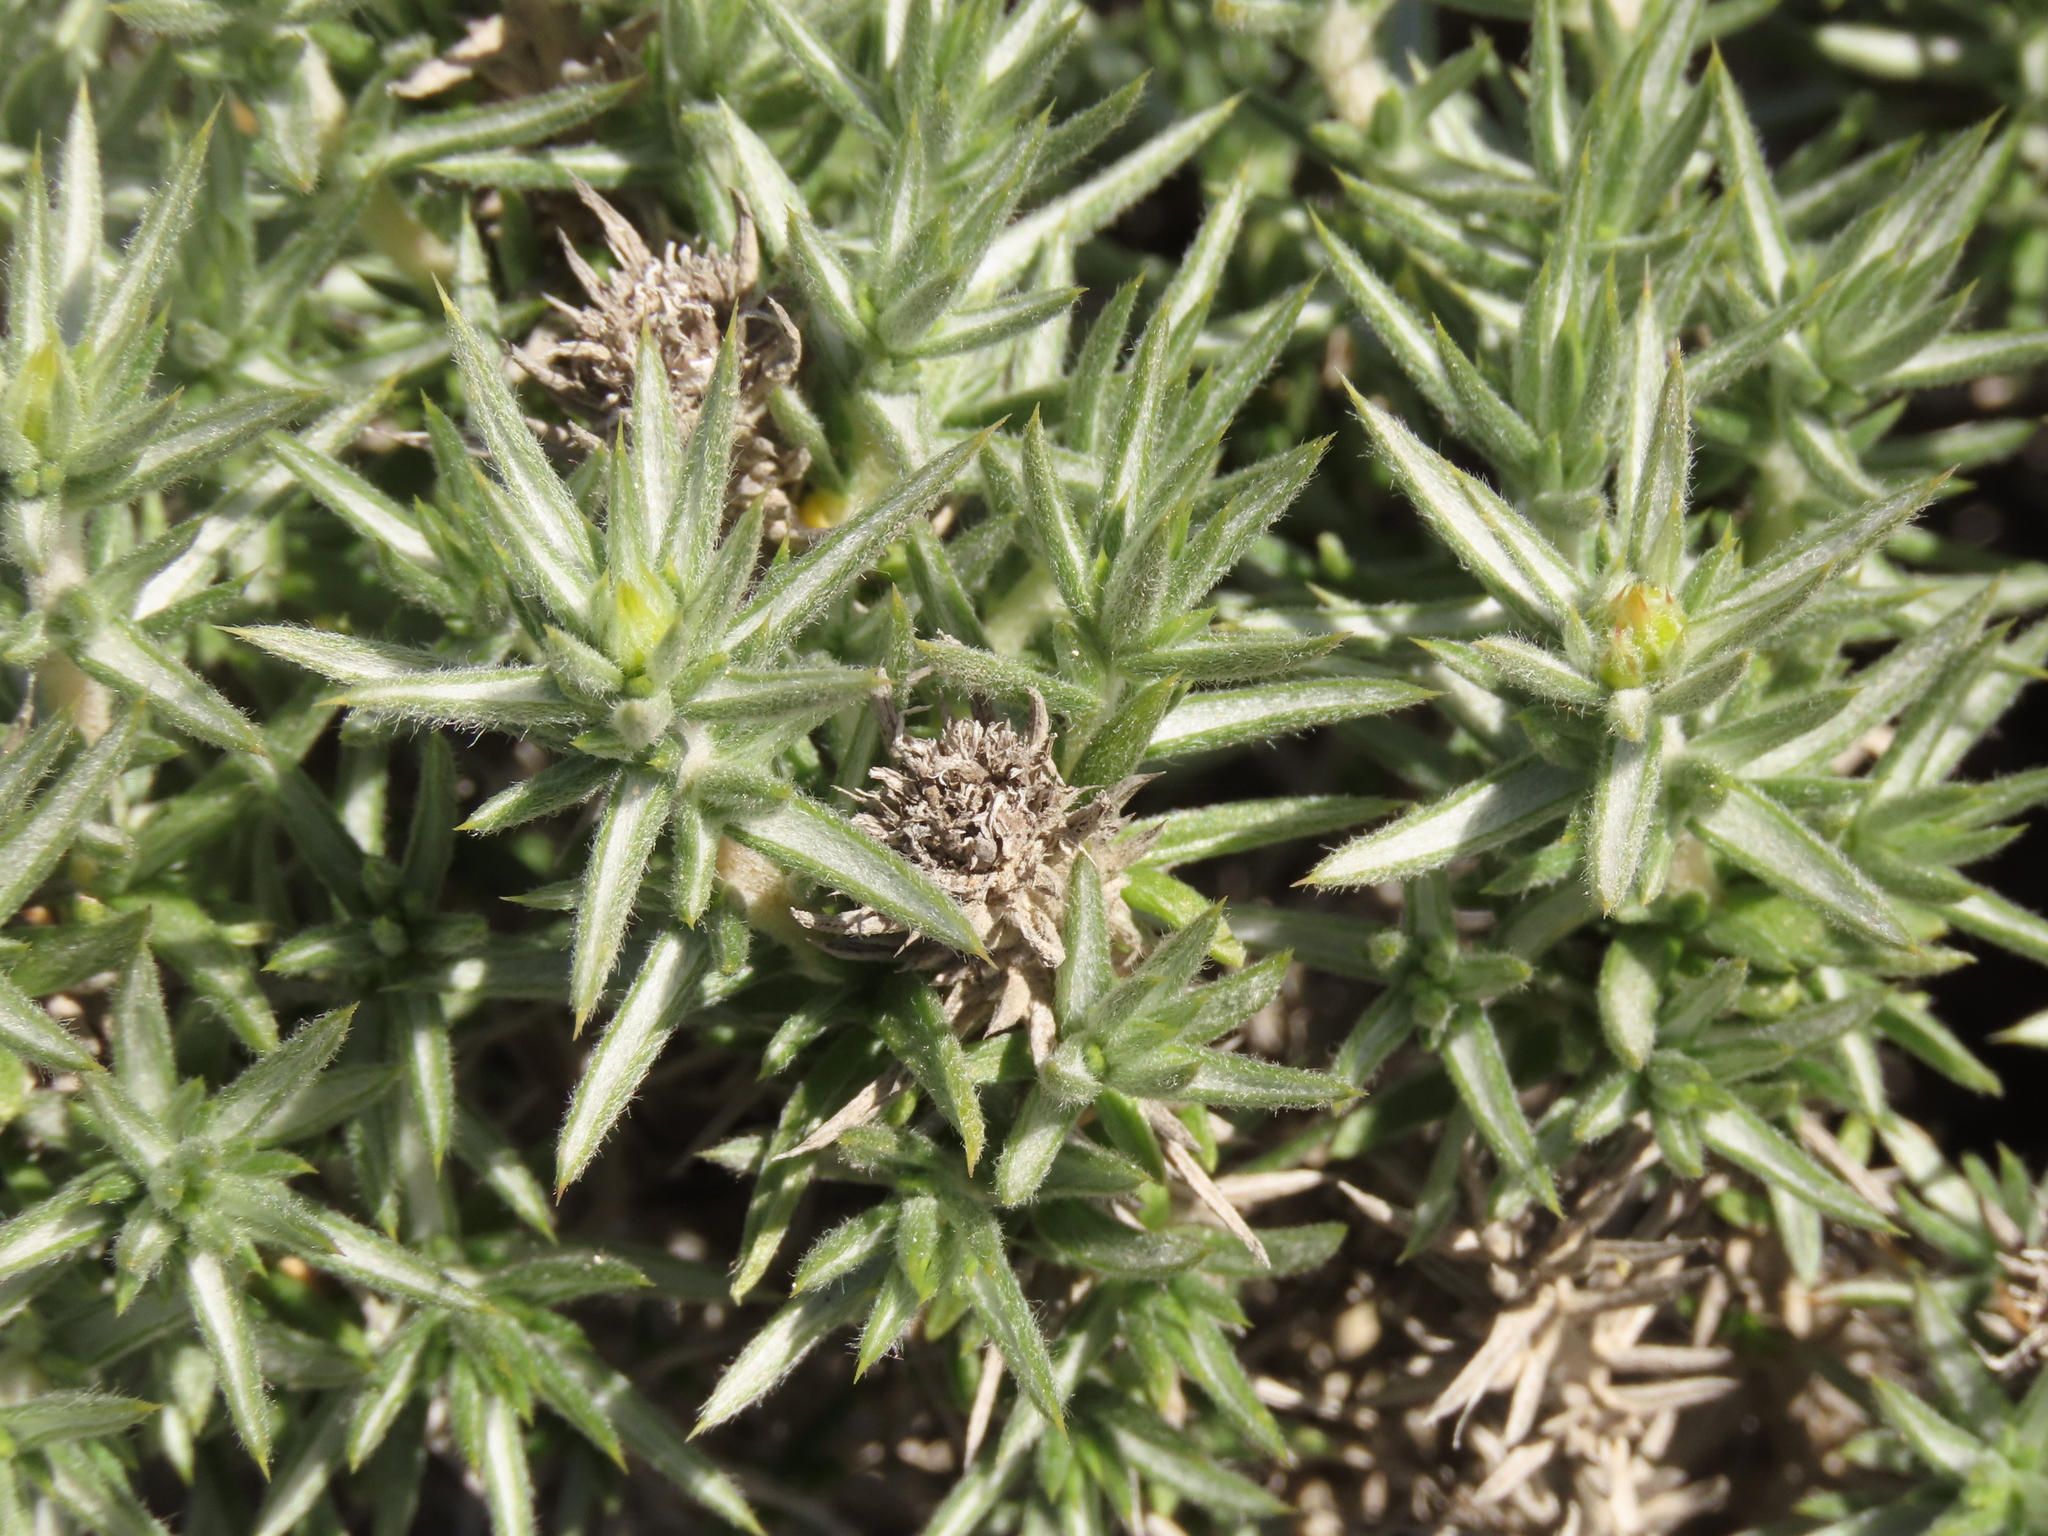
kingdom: Plantae
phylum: Tracheophyta
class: Magnoliopsida
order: Asterales
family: Asteraceae
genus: Chuquiraga
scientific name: Chuquiraga ulicina
